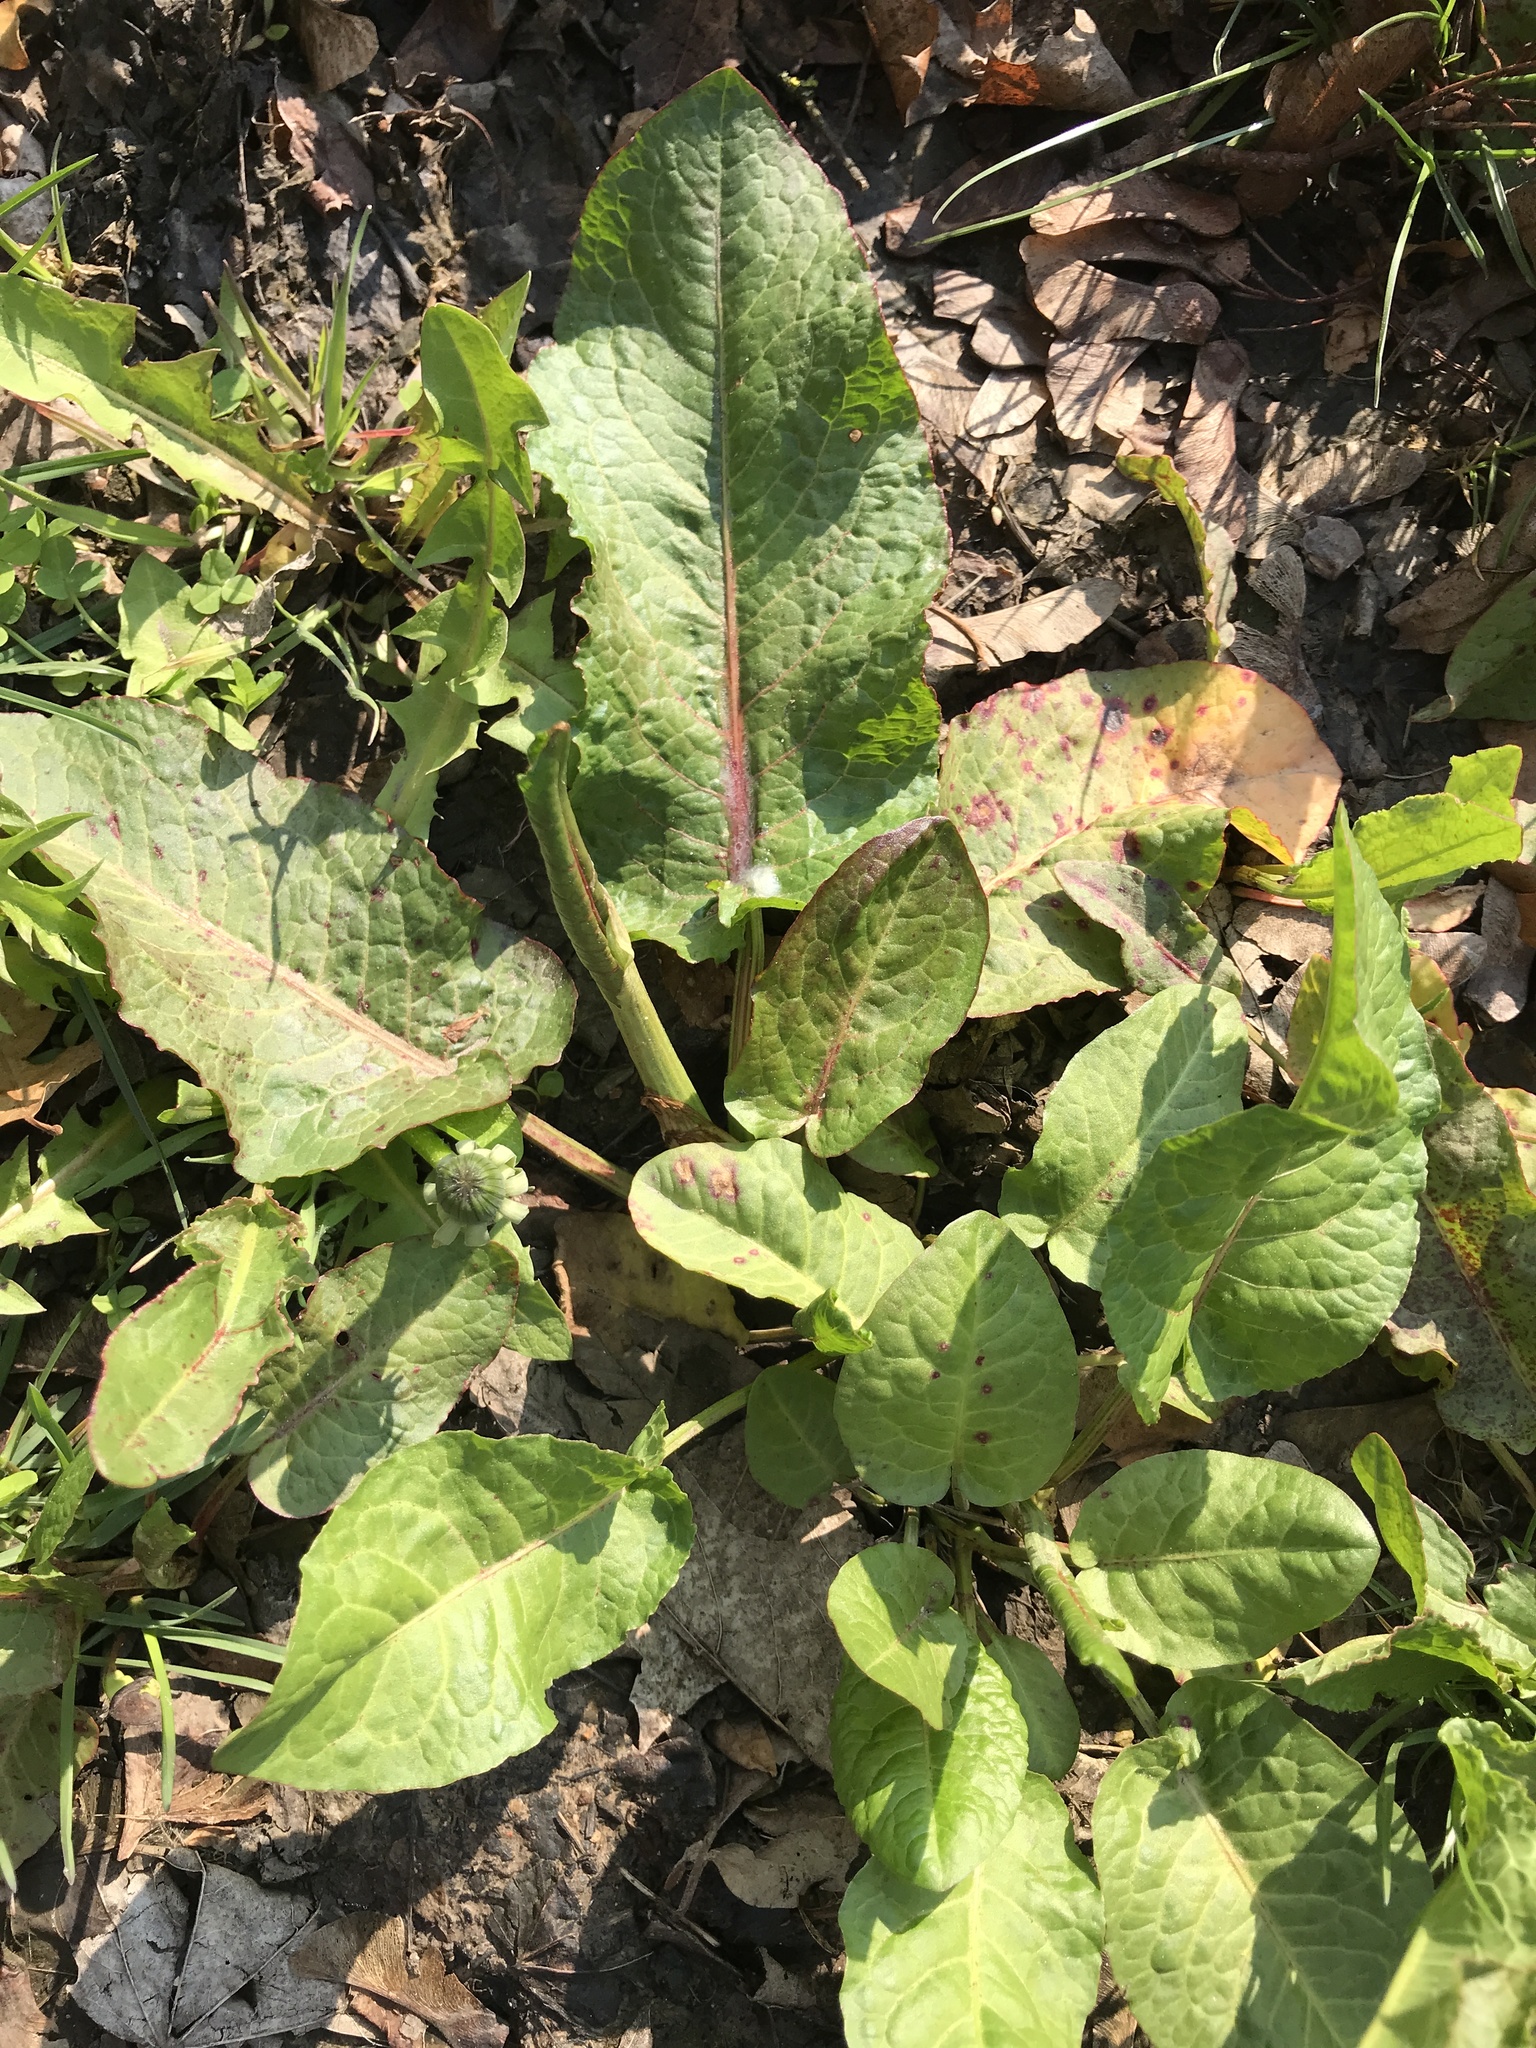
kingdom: Plantae
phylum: Tracheophyta
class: Magnoliopsida
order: Caryophyllales
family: Polygonaceae
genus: Rumex
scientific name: Rumex obtusifolius
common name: Bitter dock
